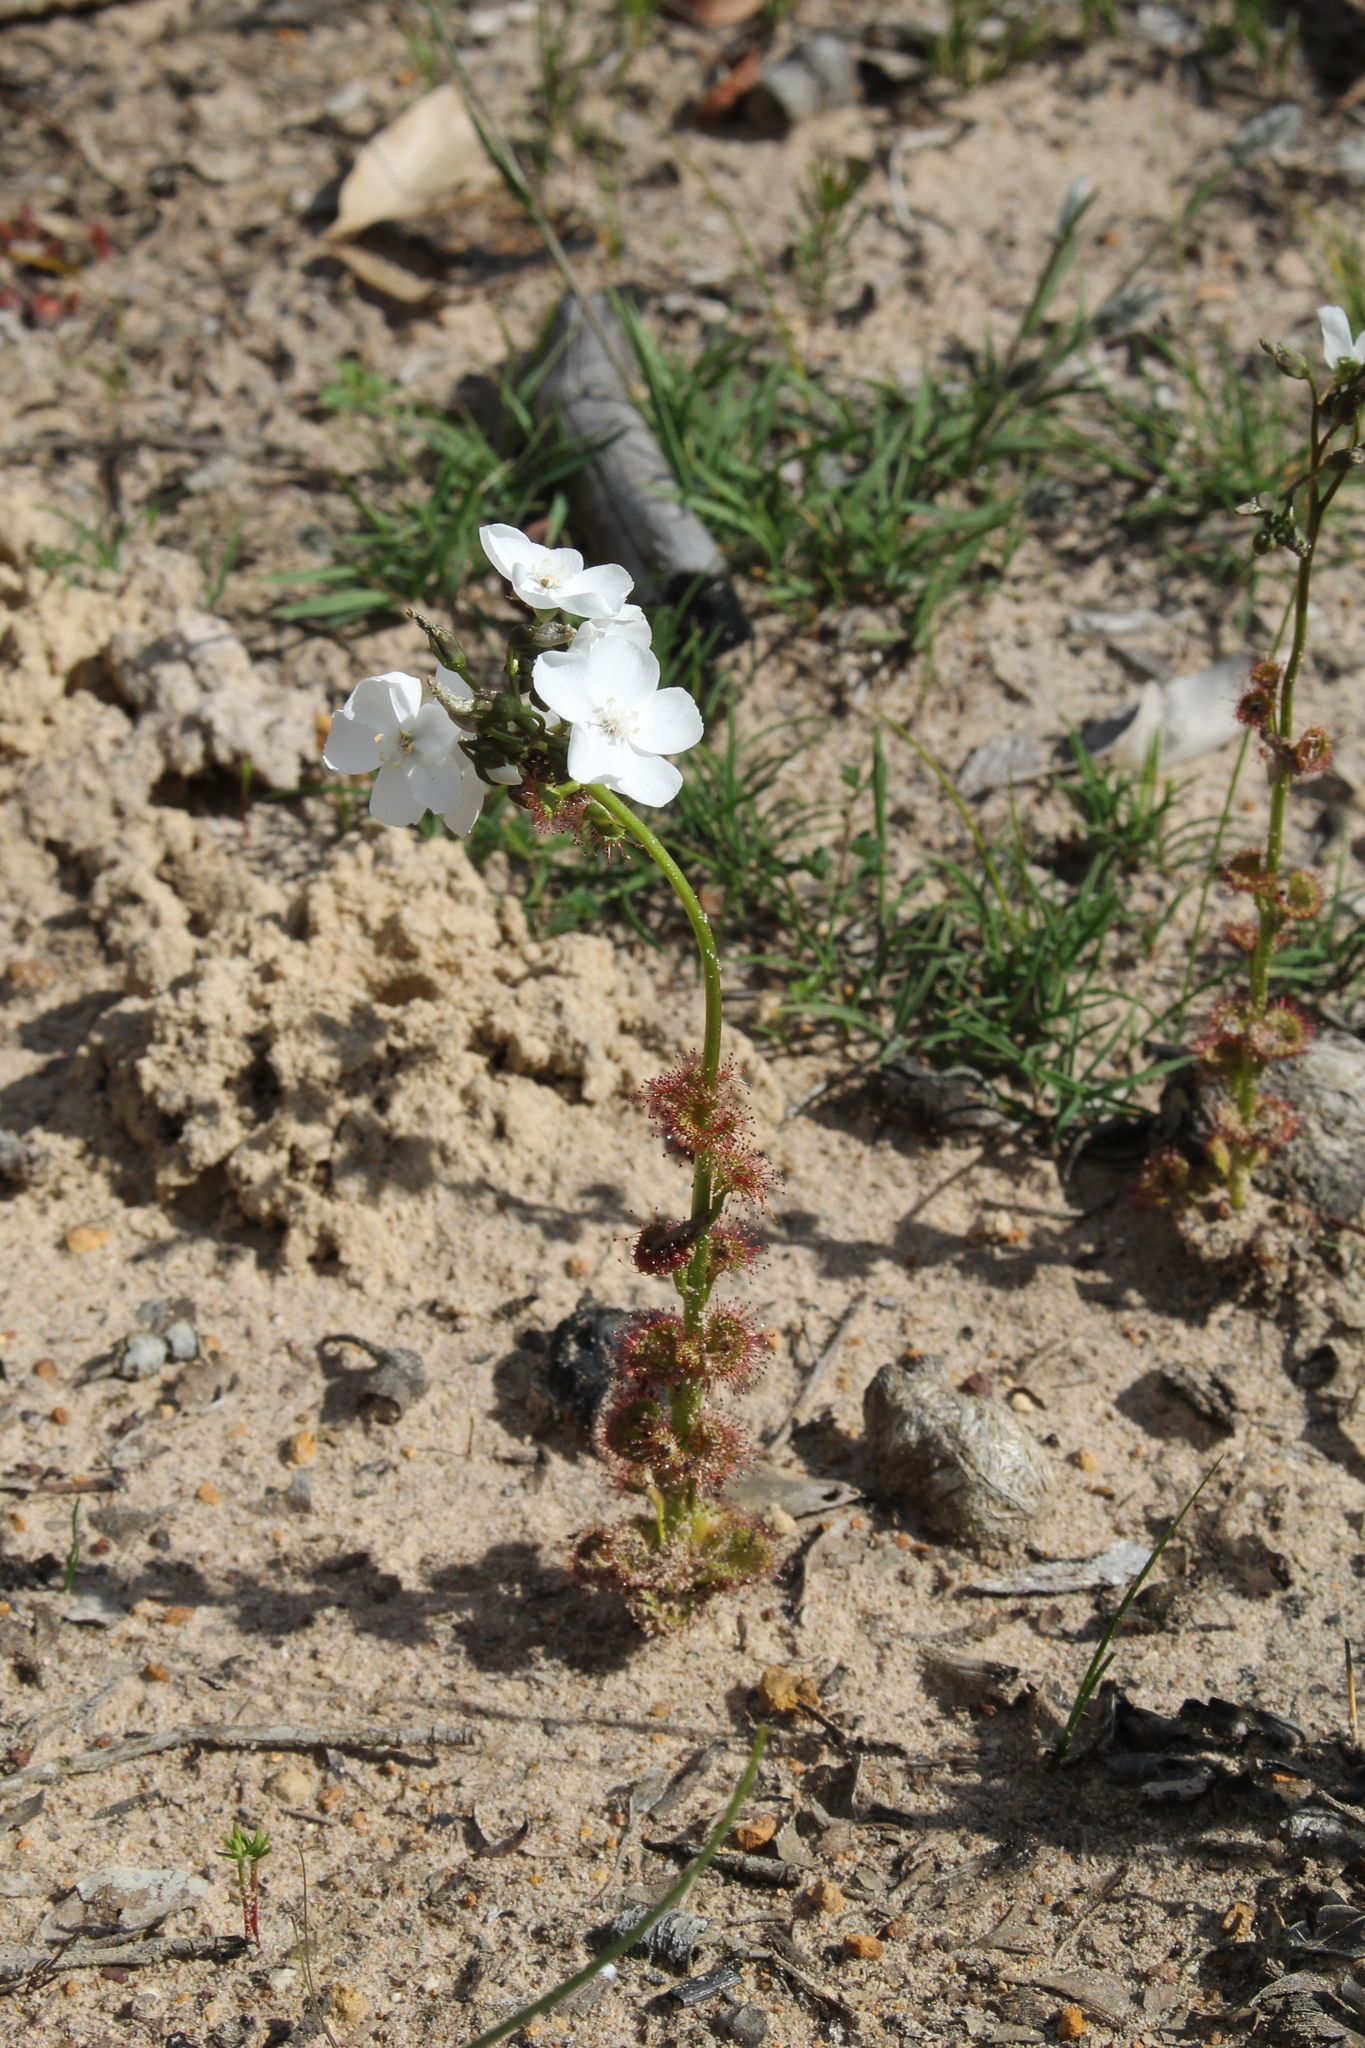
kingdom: Plantae
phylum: Tracheophyta
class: Magnoliopsida
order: Caryophyllales
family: Droseraceae
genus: Drosera
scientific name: Drosera platypoda
